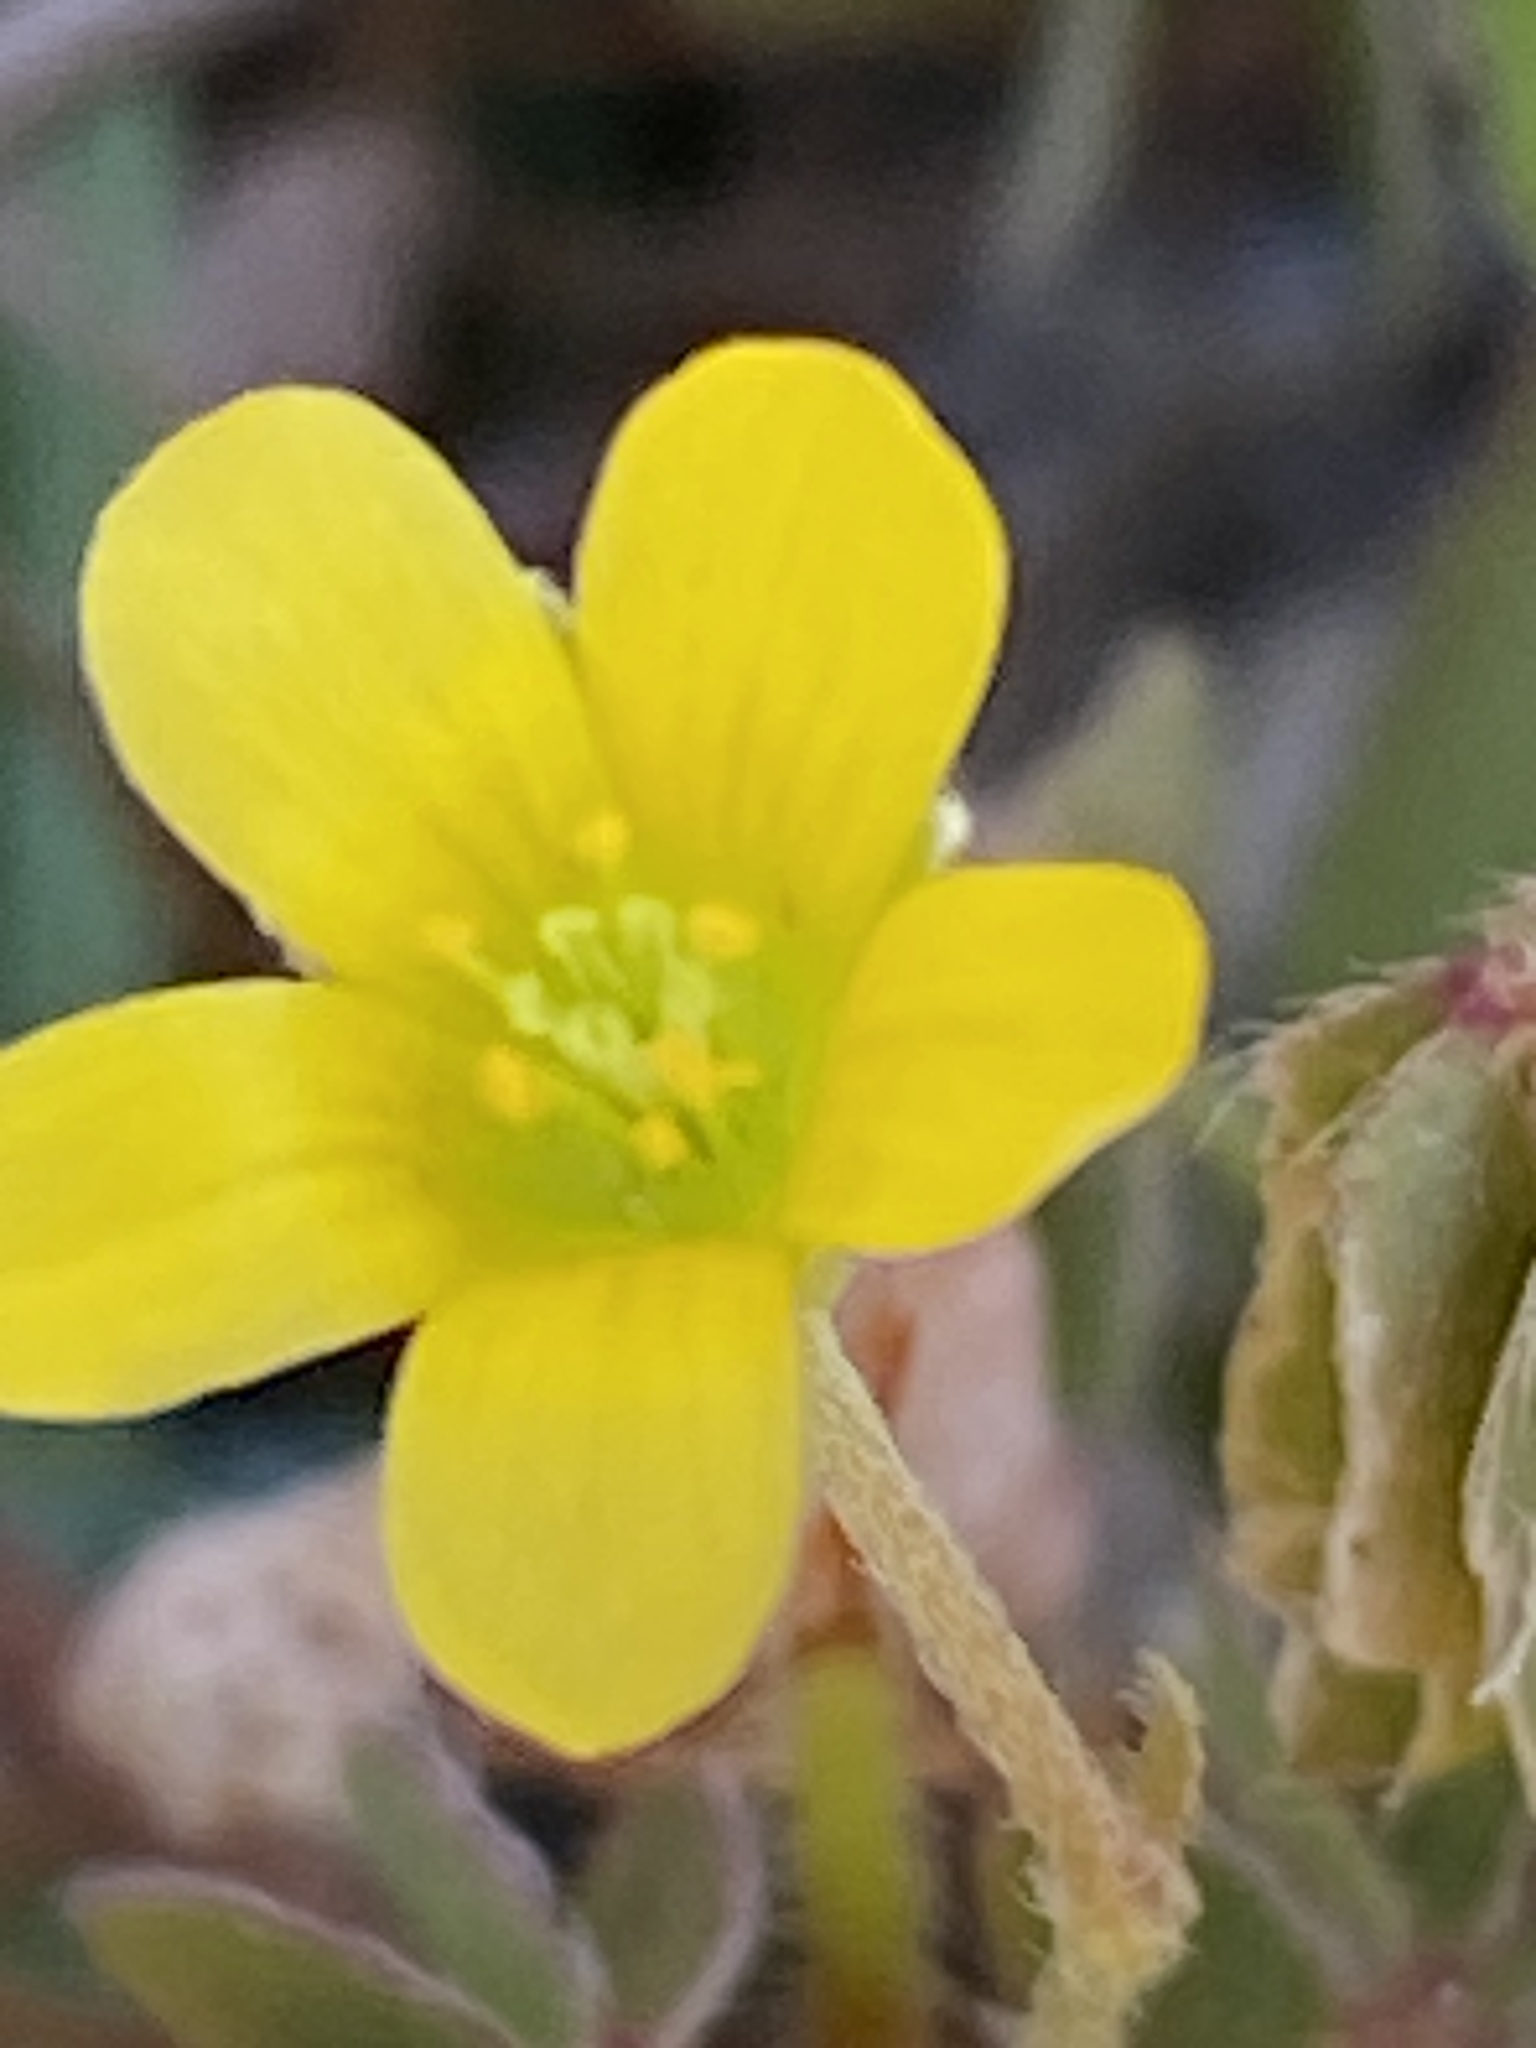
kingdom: Plantae
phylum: Tracheophyta
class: Magnoliopsida
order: Oxalidales
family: Oxalidaceae
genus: Oxalis
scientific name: Oxalis corniculata
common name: Procumbent yellow-sorrel
